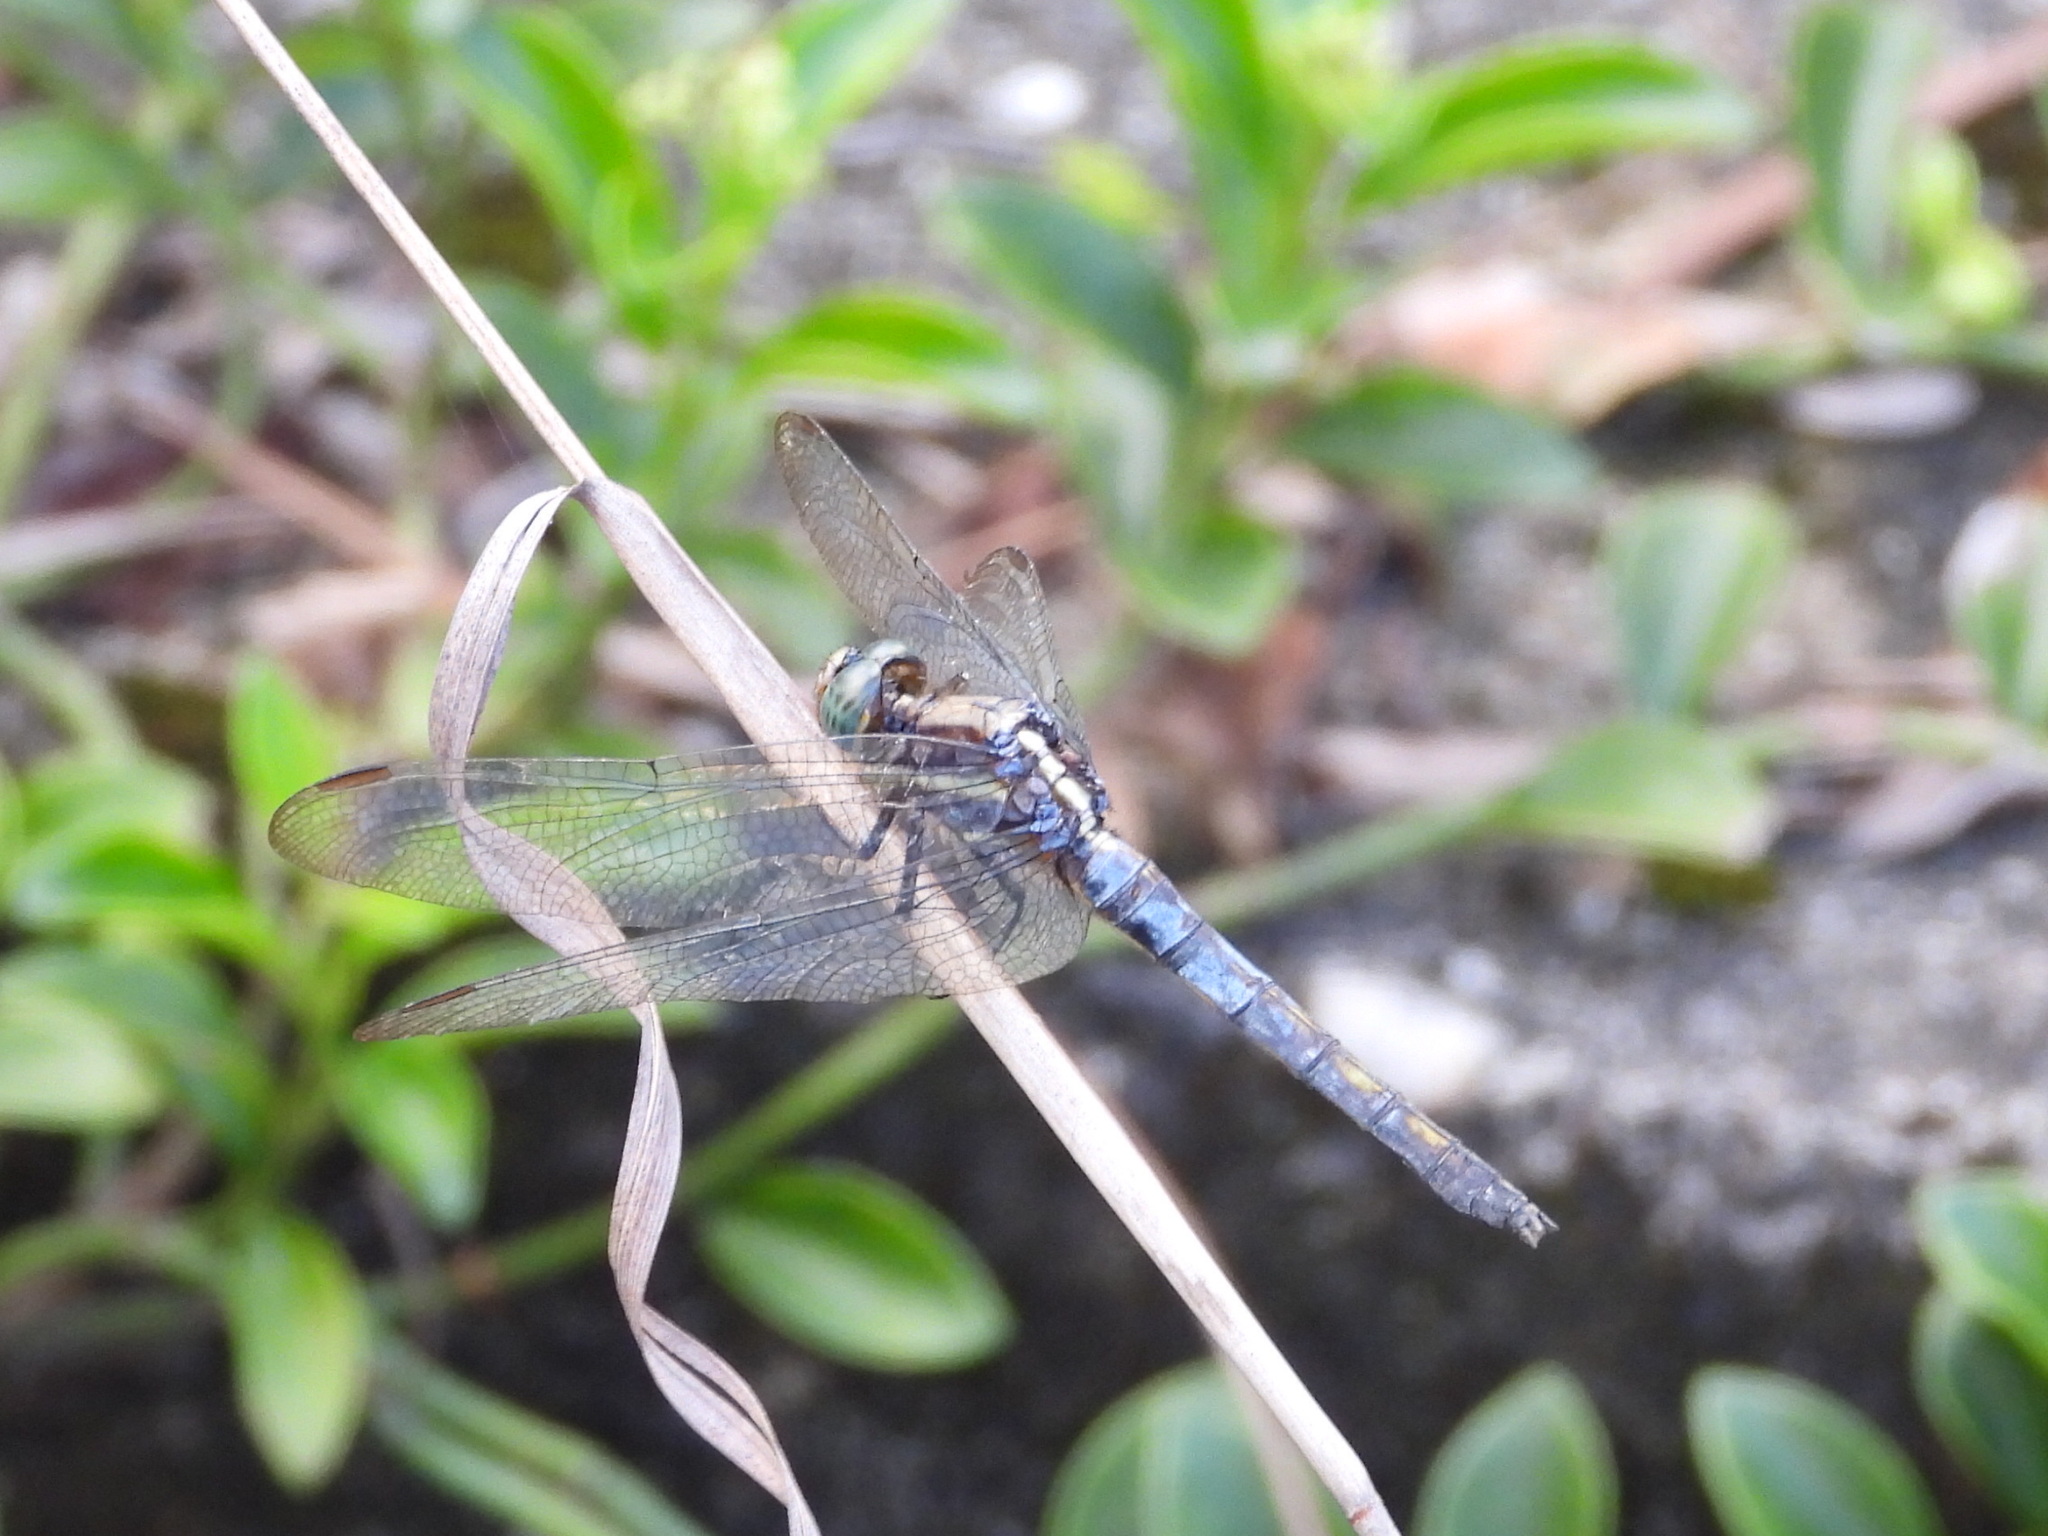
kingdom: Animalia
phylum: Arthropoda
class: Insecta
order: Odonata
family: Libellulidae
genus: Orthetrum
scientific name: Orthetrum luzonicum
